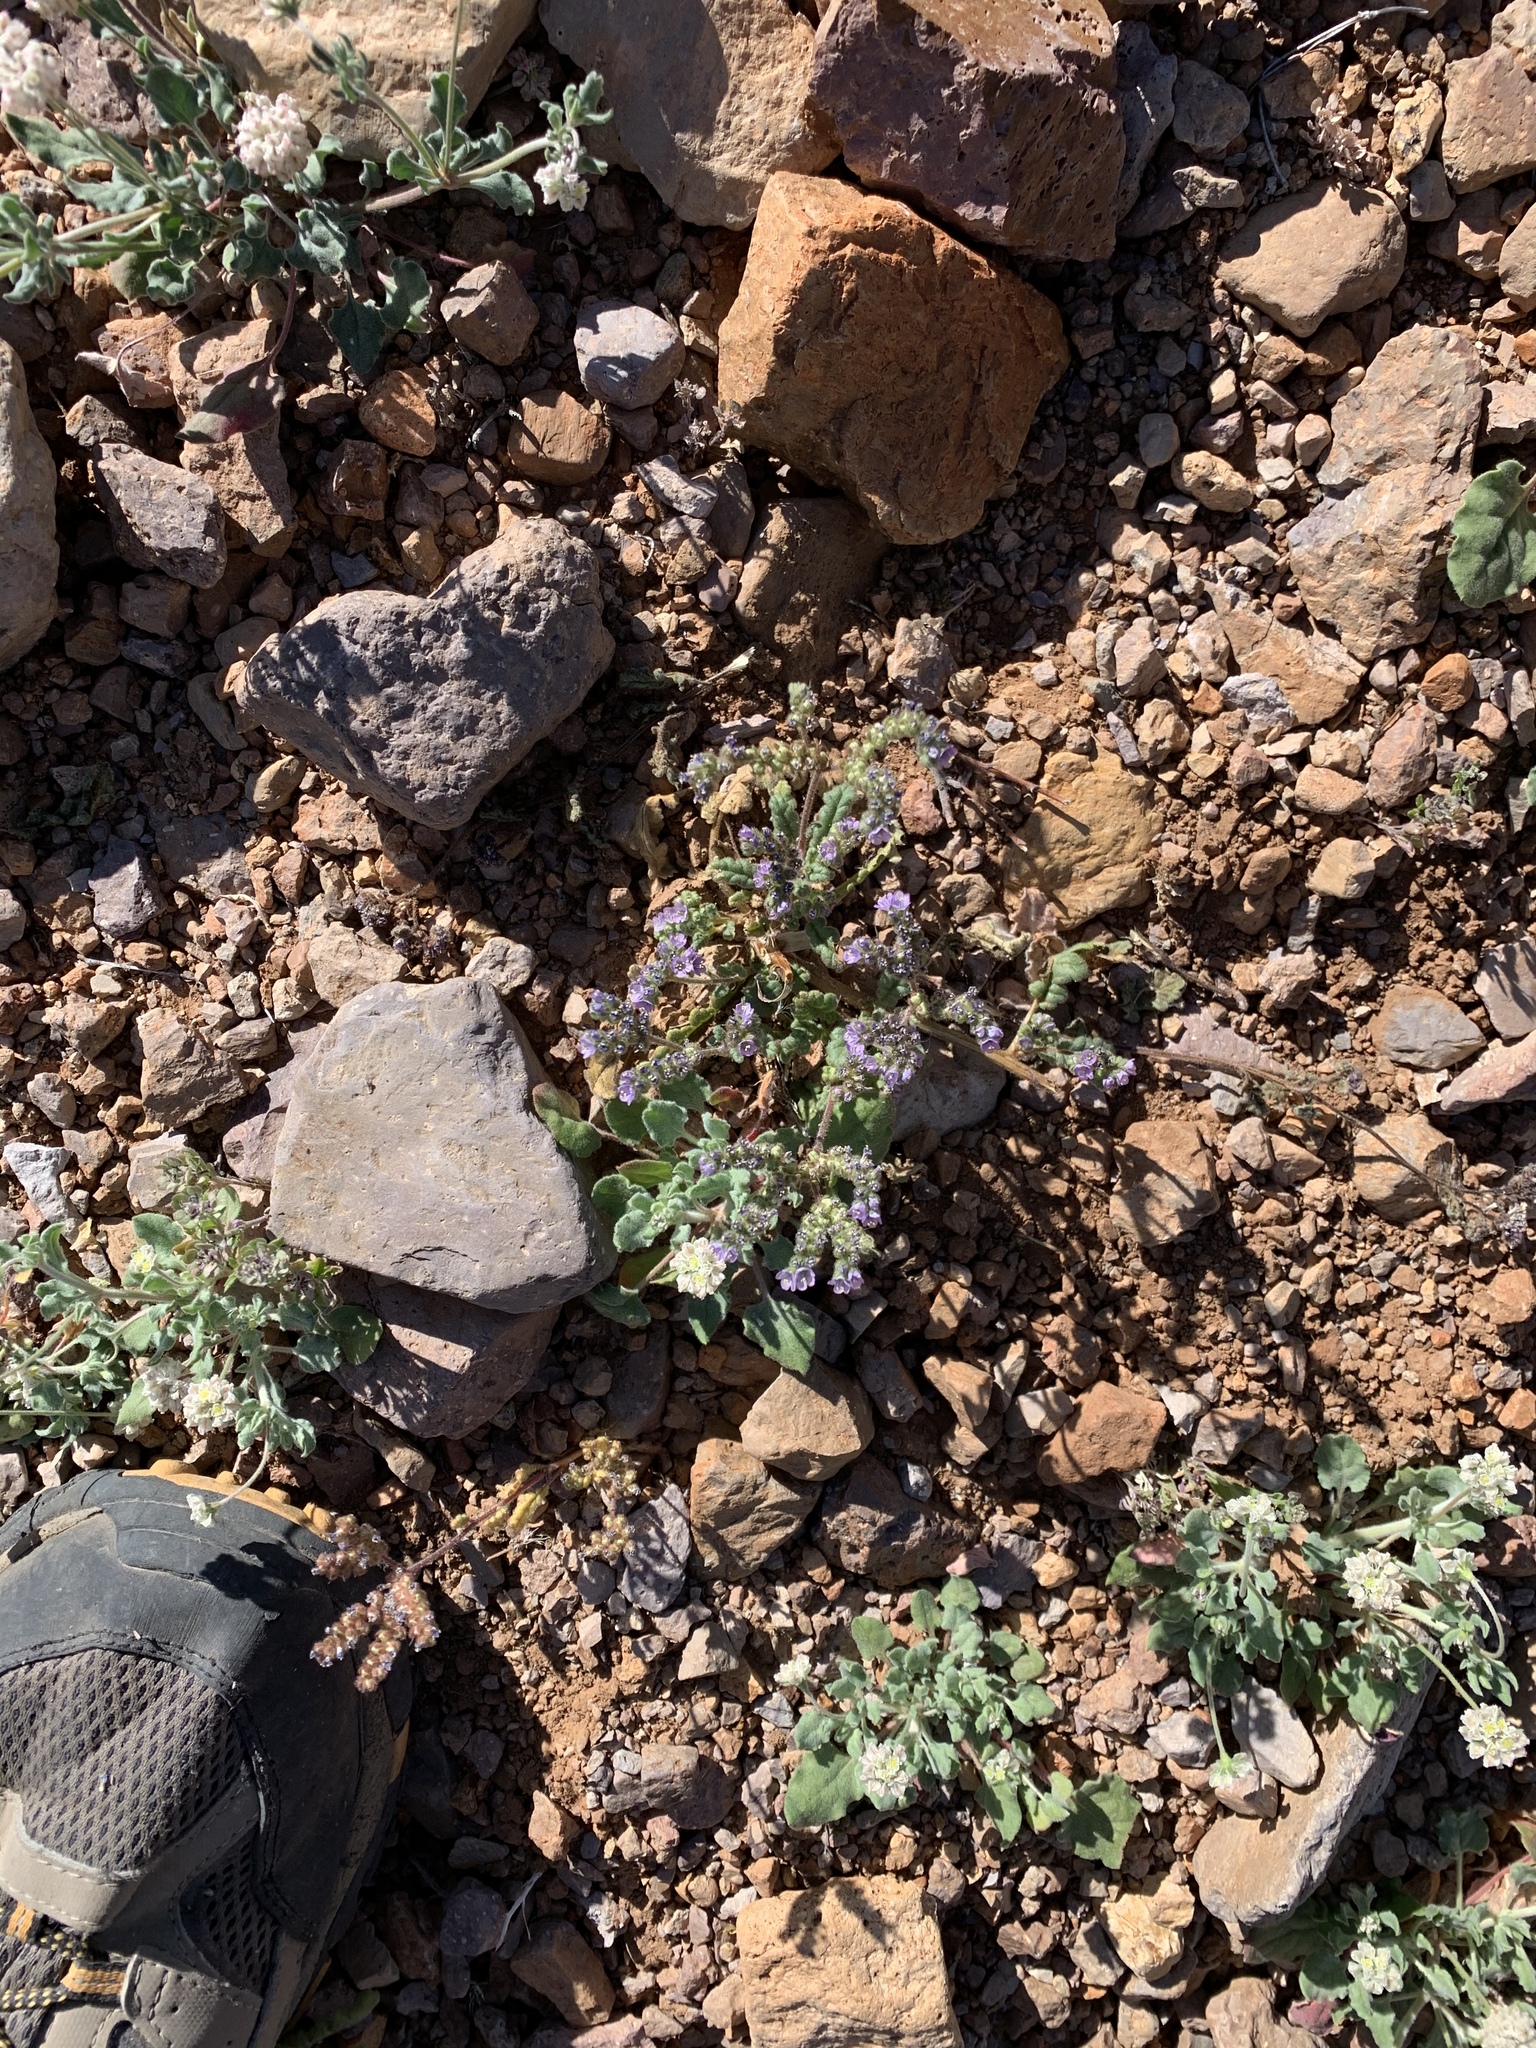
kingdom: Plantae
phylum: Tracheophyta
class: Magnoliopsida
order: Boraginales
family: Hydrophyllaceae
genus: Phacelia
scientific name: Phacelia coerulea
